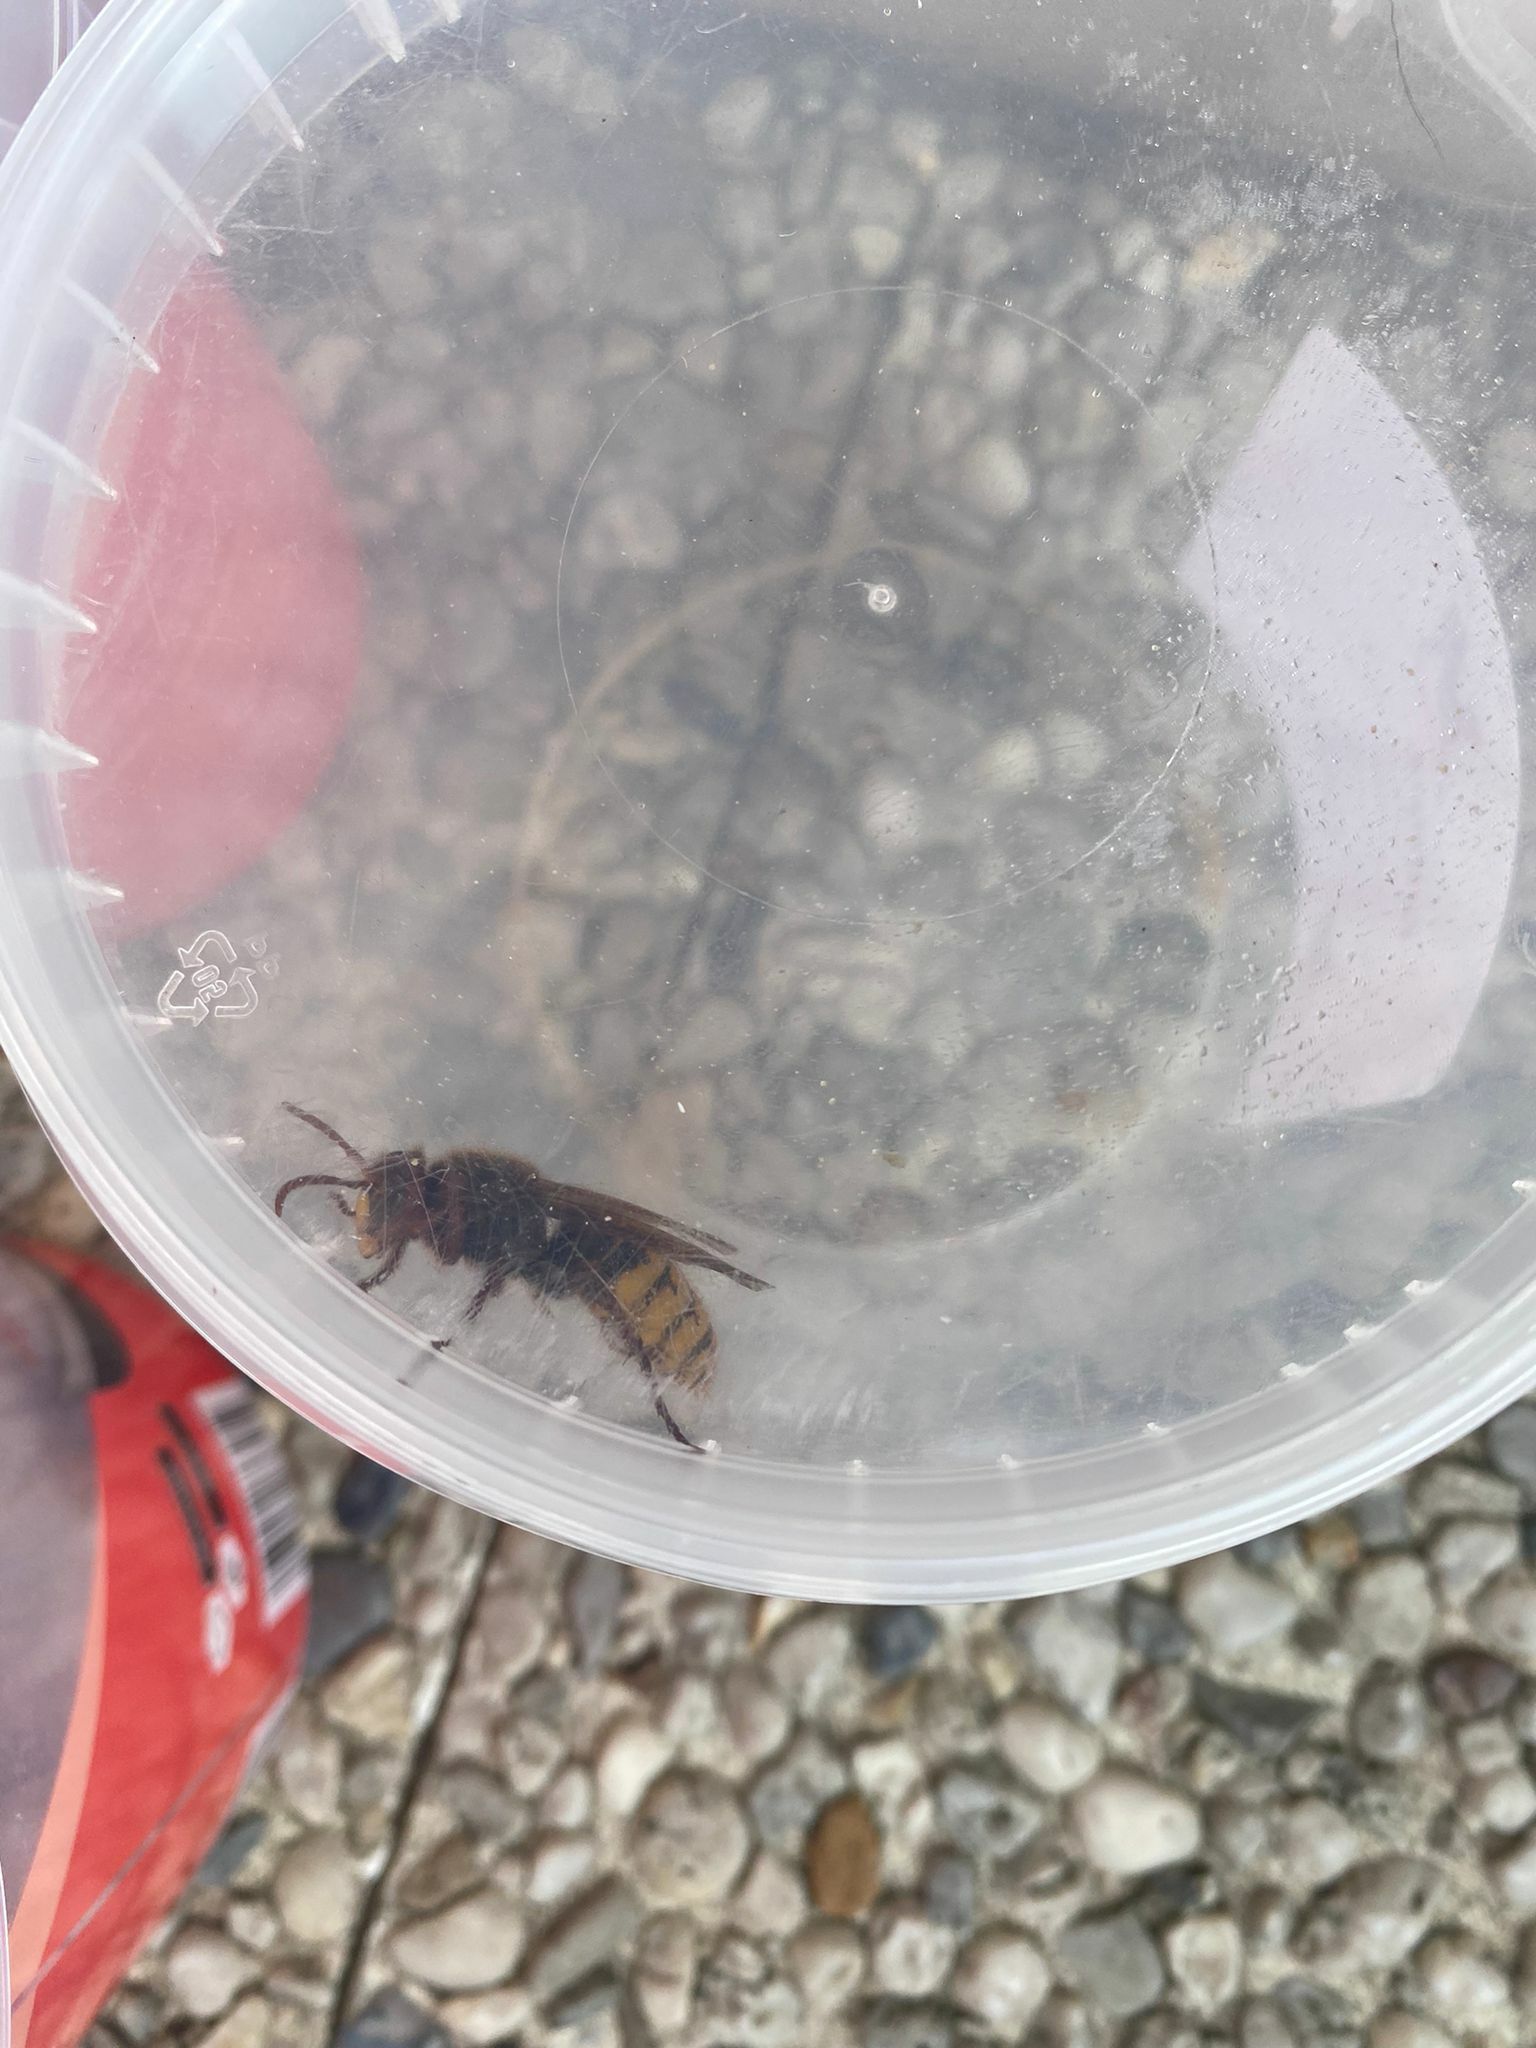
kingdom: Animalia
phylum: Arthropoda
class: Insecta
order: Hymenoptera
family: Vespidae
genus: Vespa
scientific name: Vespa crabro
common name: Hornet
